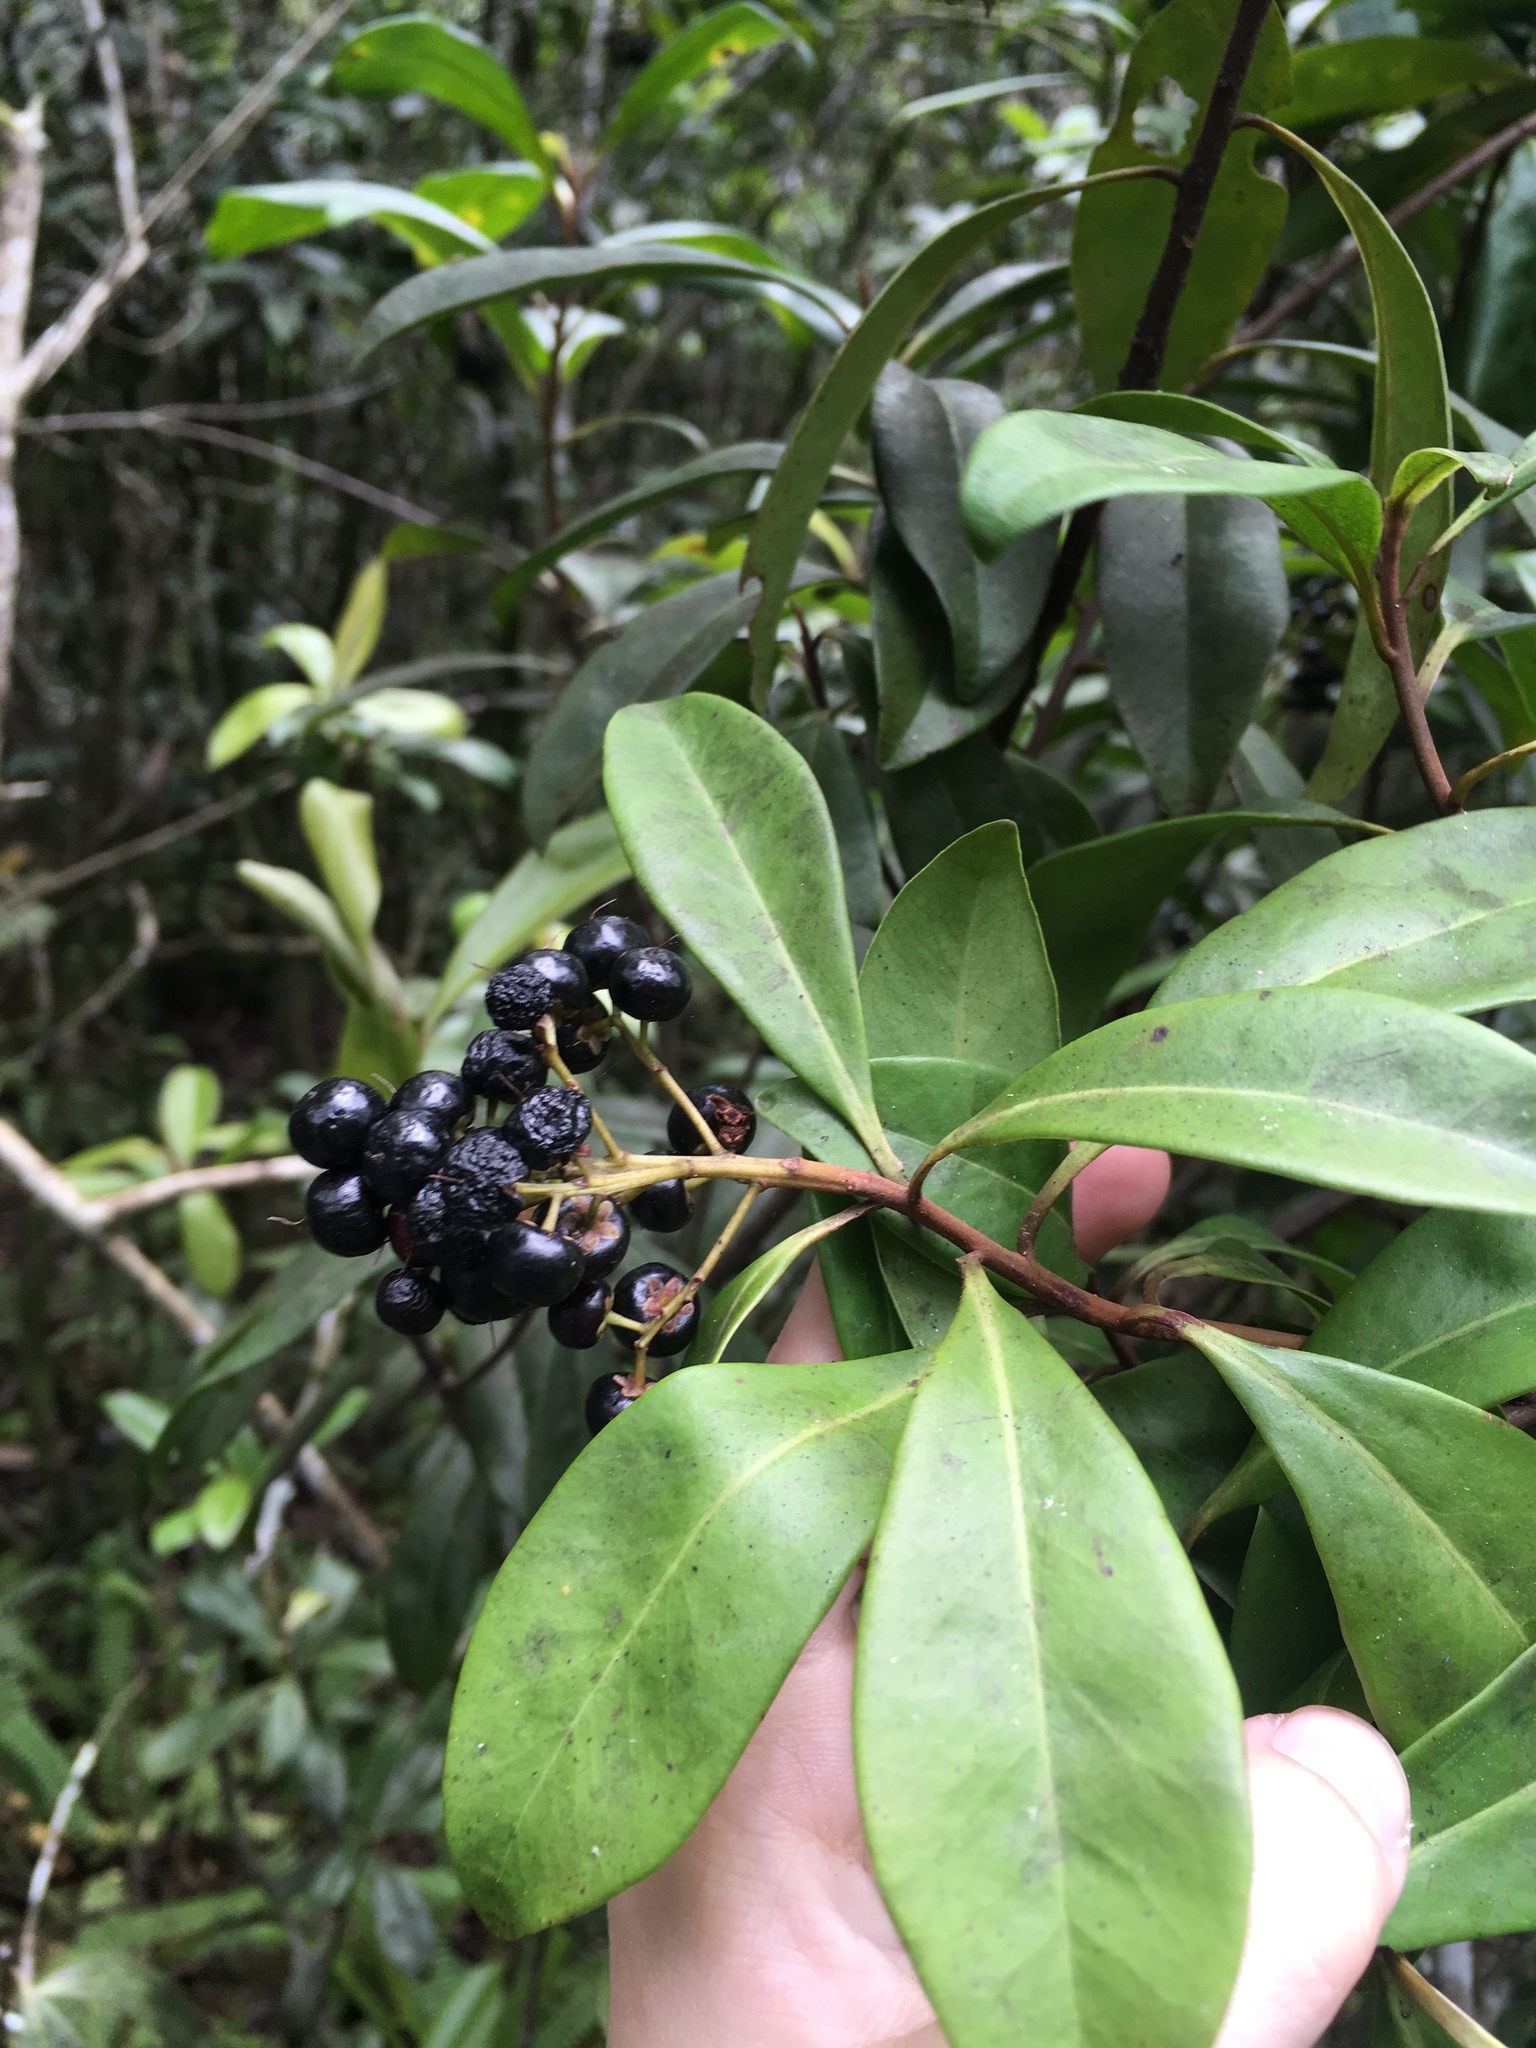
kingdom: Plantae
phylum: Tracheophyta
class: Magnoliopsida
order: Ericales
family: Primulaceae
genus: Ardisia
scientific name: Ardisia escallonioides
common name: Island marlberry
